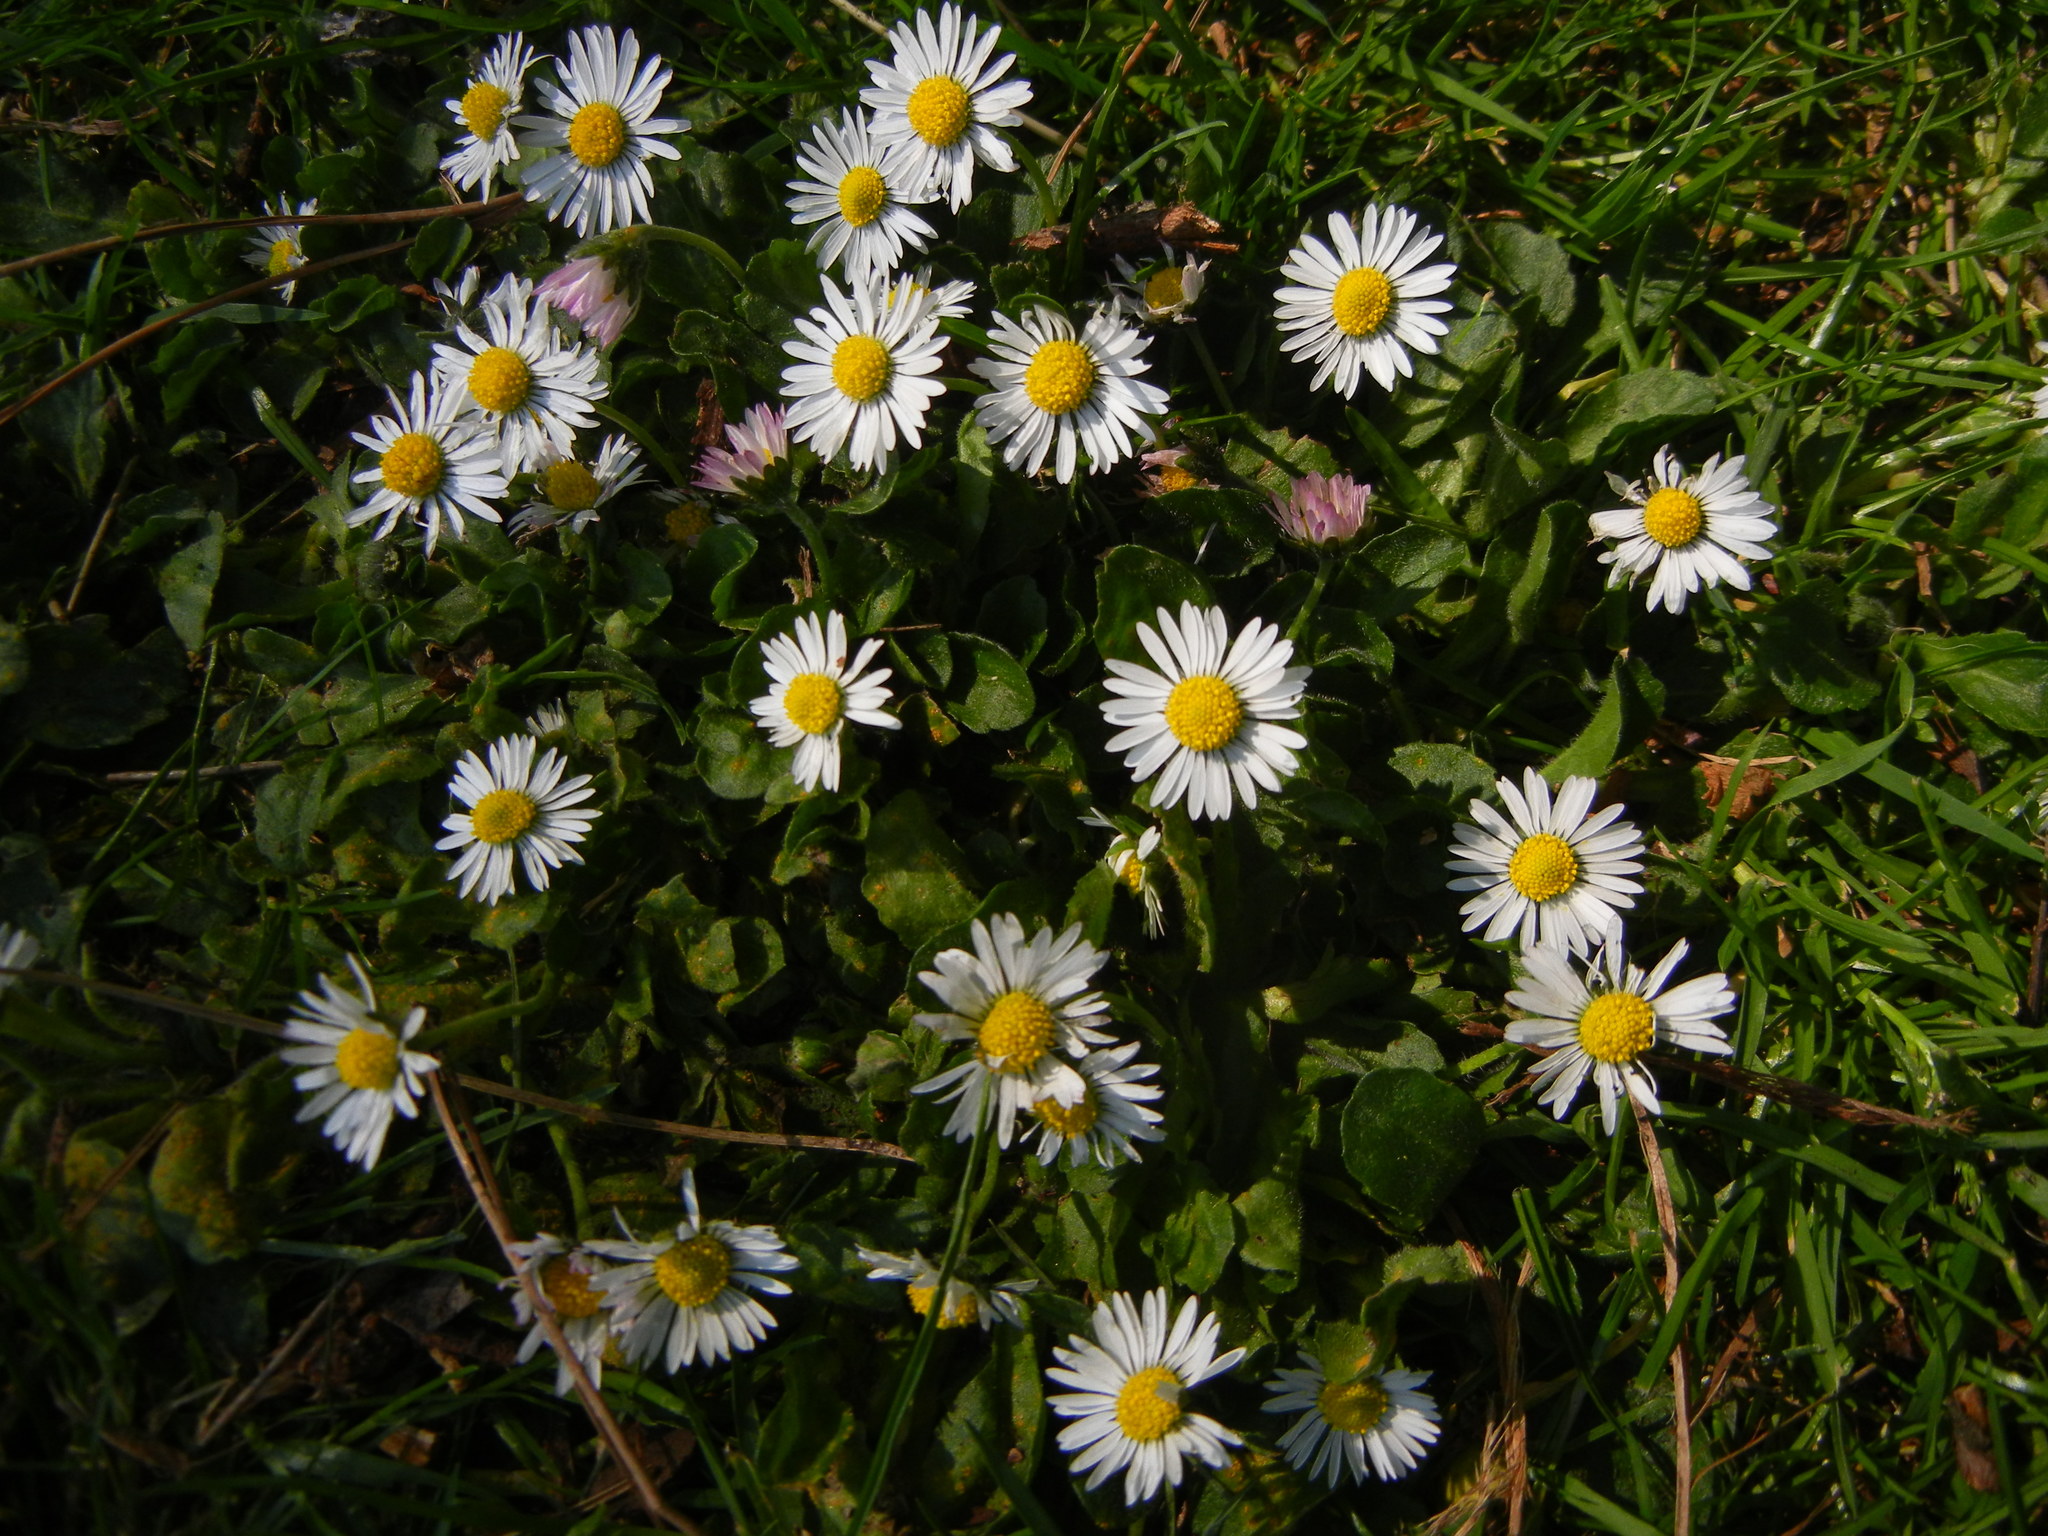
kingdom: Plantae
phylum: Tracheophyta
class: Magnoliopsida
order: Asterales
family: Asteraceae
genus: Bellis
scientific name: Bellis perennis
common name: Lawndaisy
